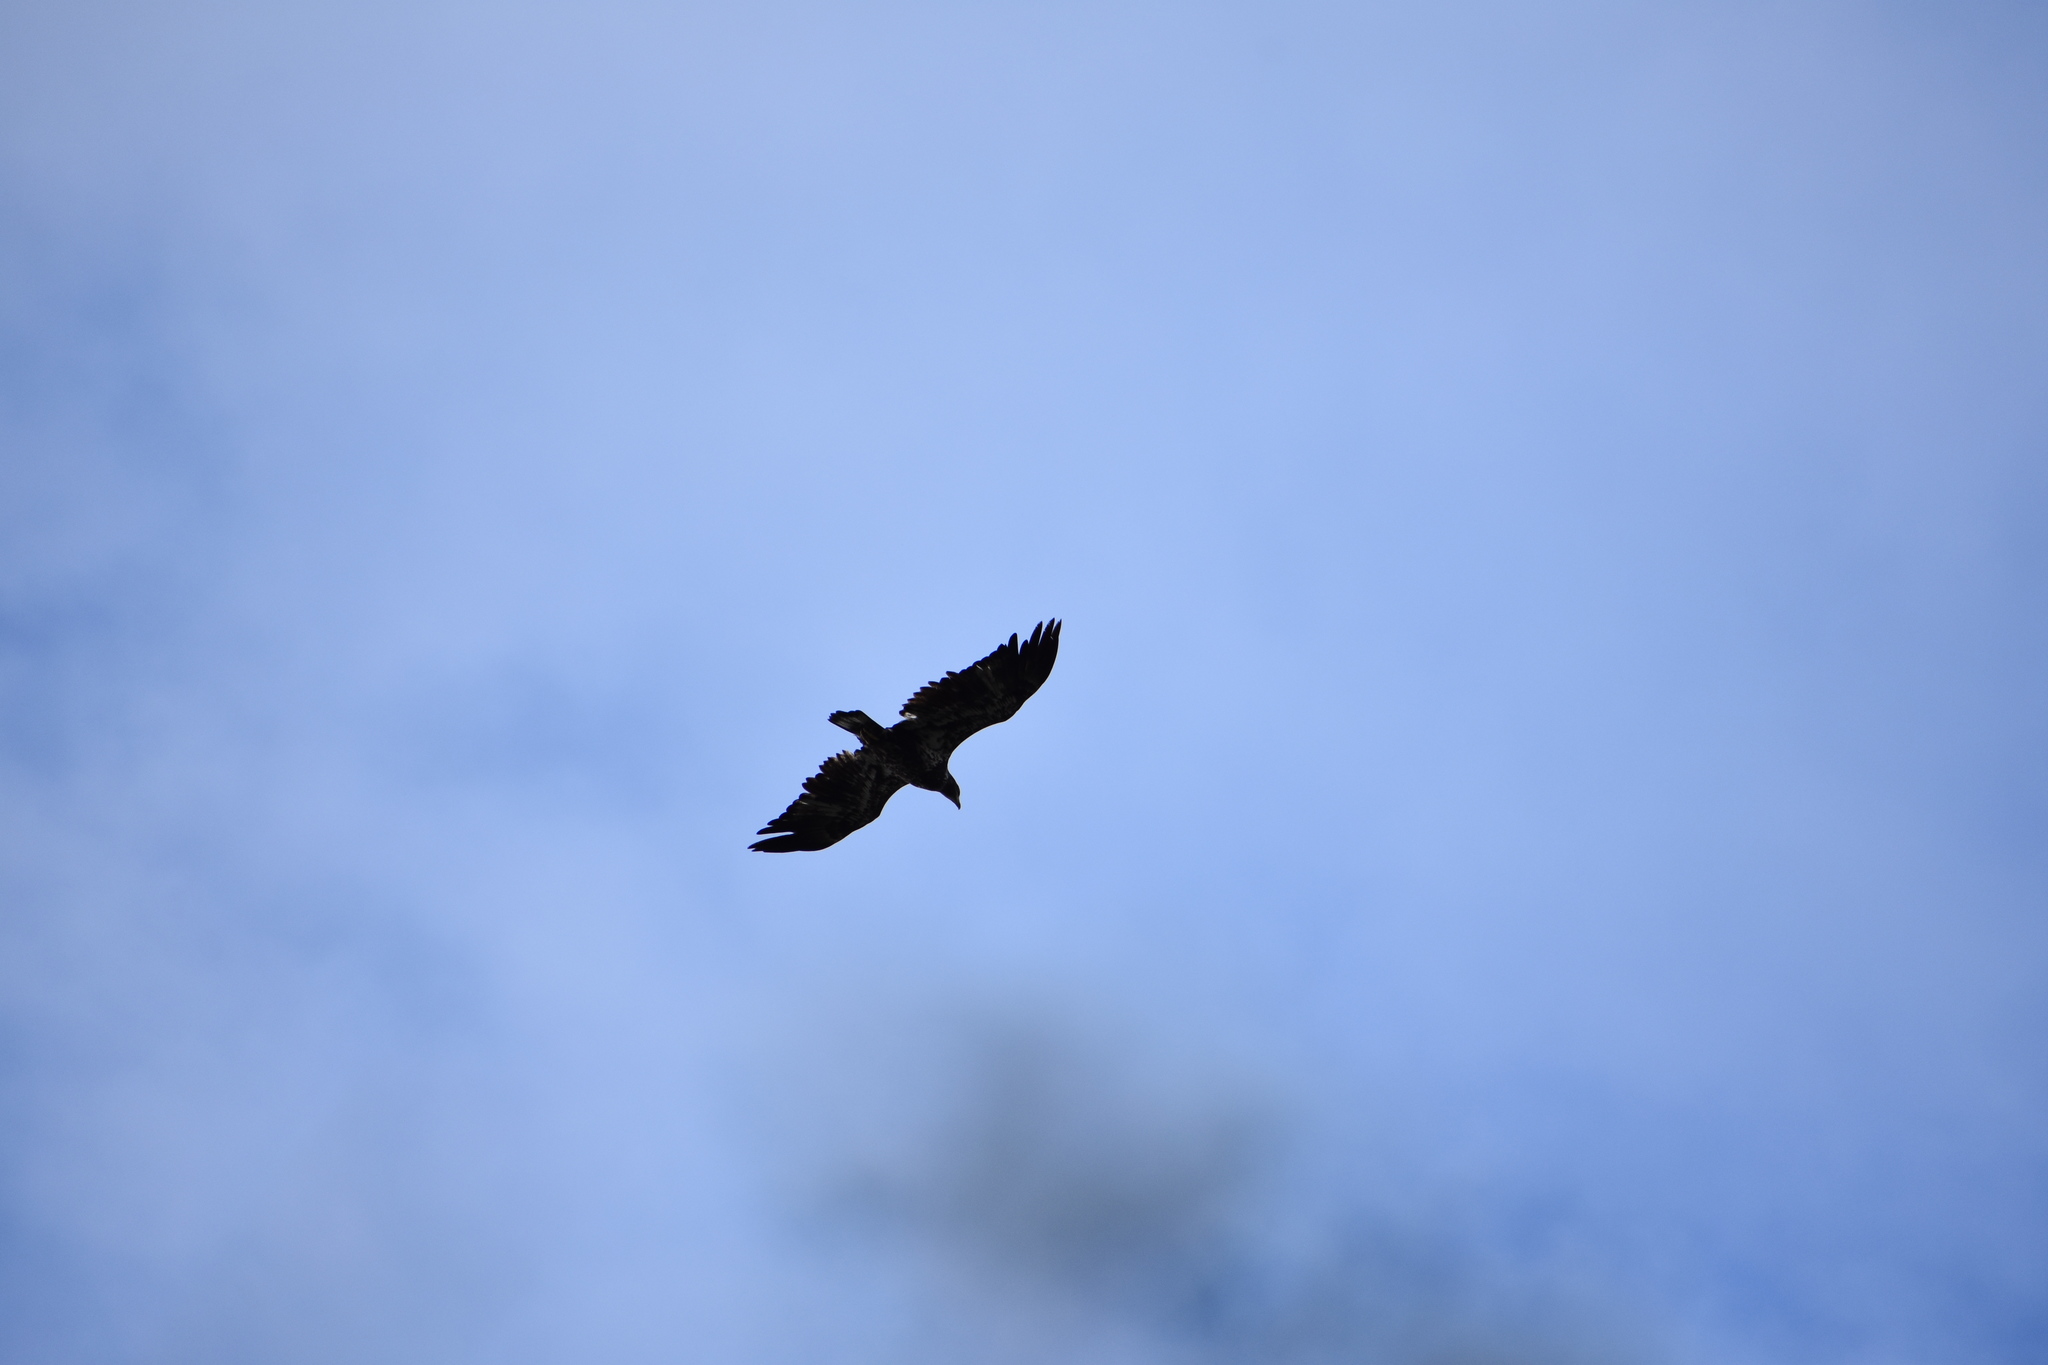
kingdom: Animalia
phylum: Chordata
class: Aves
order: Accipitriformes
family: Accipitridae
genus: Haliaeetus
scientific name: Haliaeetus leucocephalus
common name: Bald eagle
